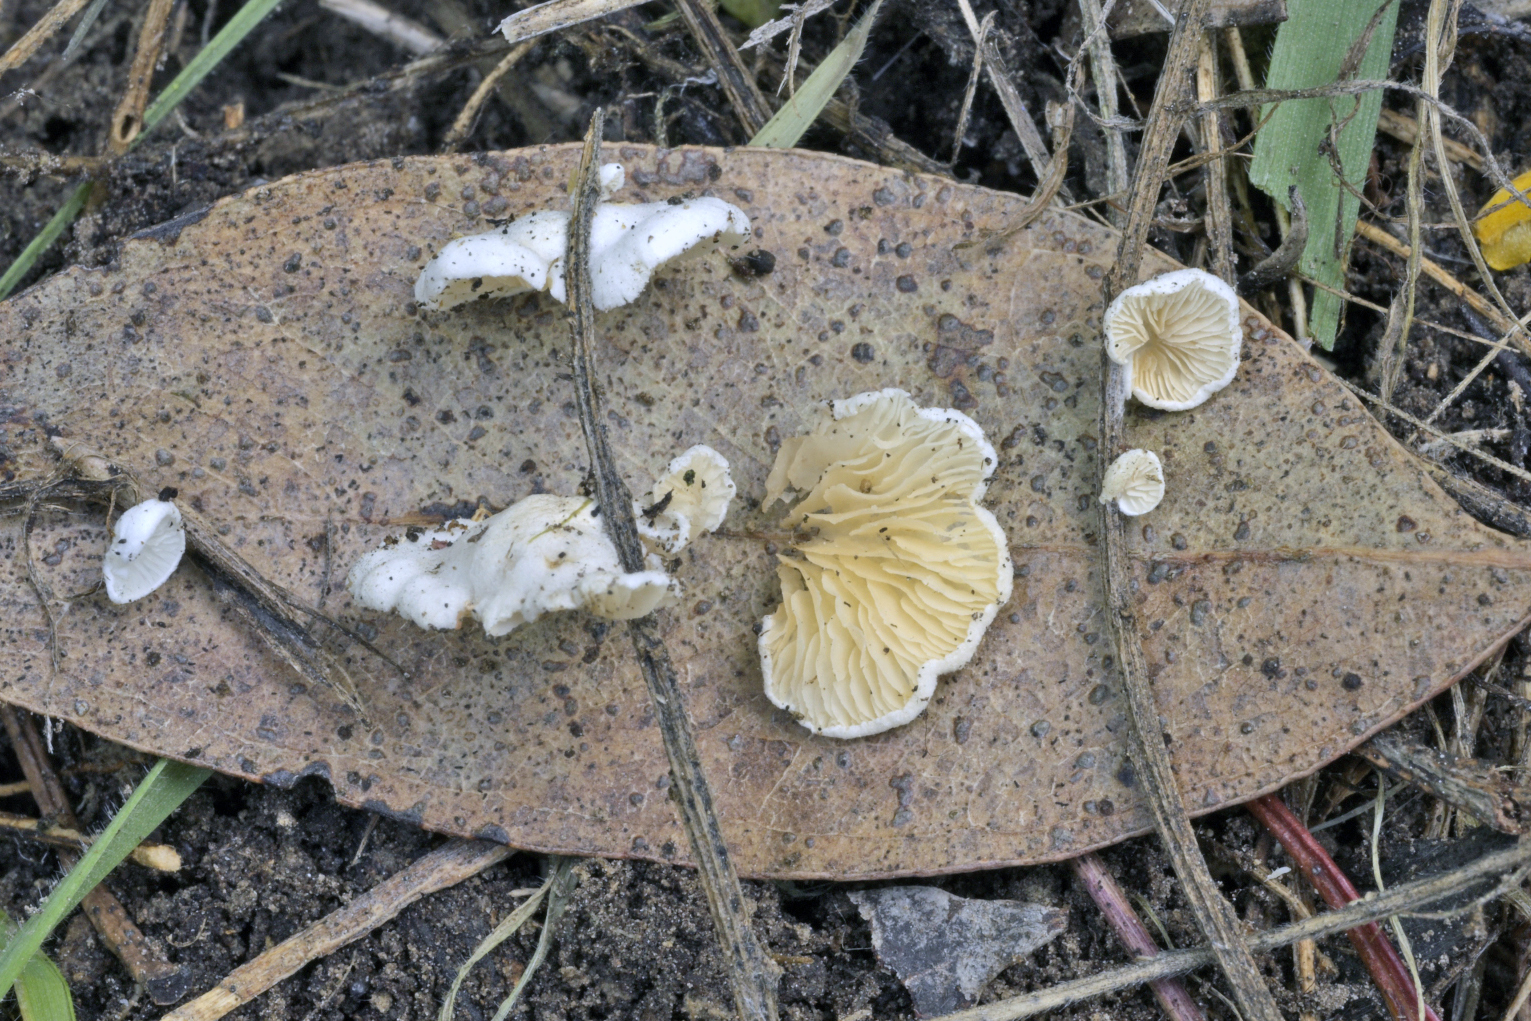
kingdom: Fungi
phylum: Basidiomycota
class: Agaricomycetes
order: Agaricales
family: Crepidotaceae
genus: Crepidotus
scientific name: Crepidotus epibryus
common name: Grass oysterling
